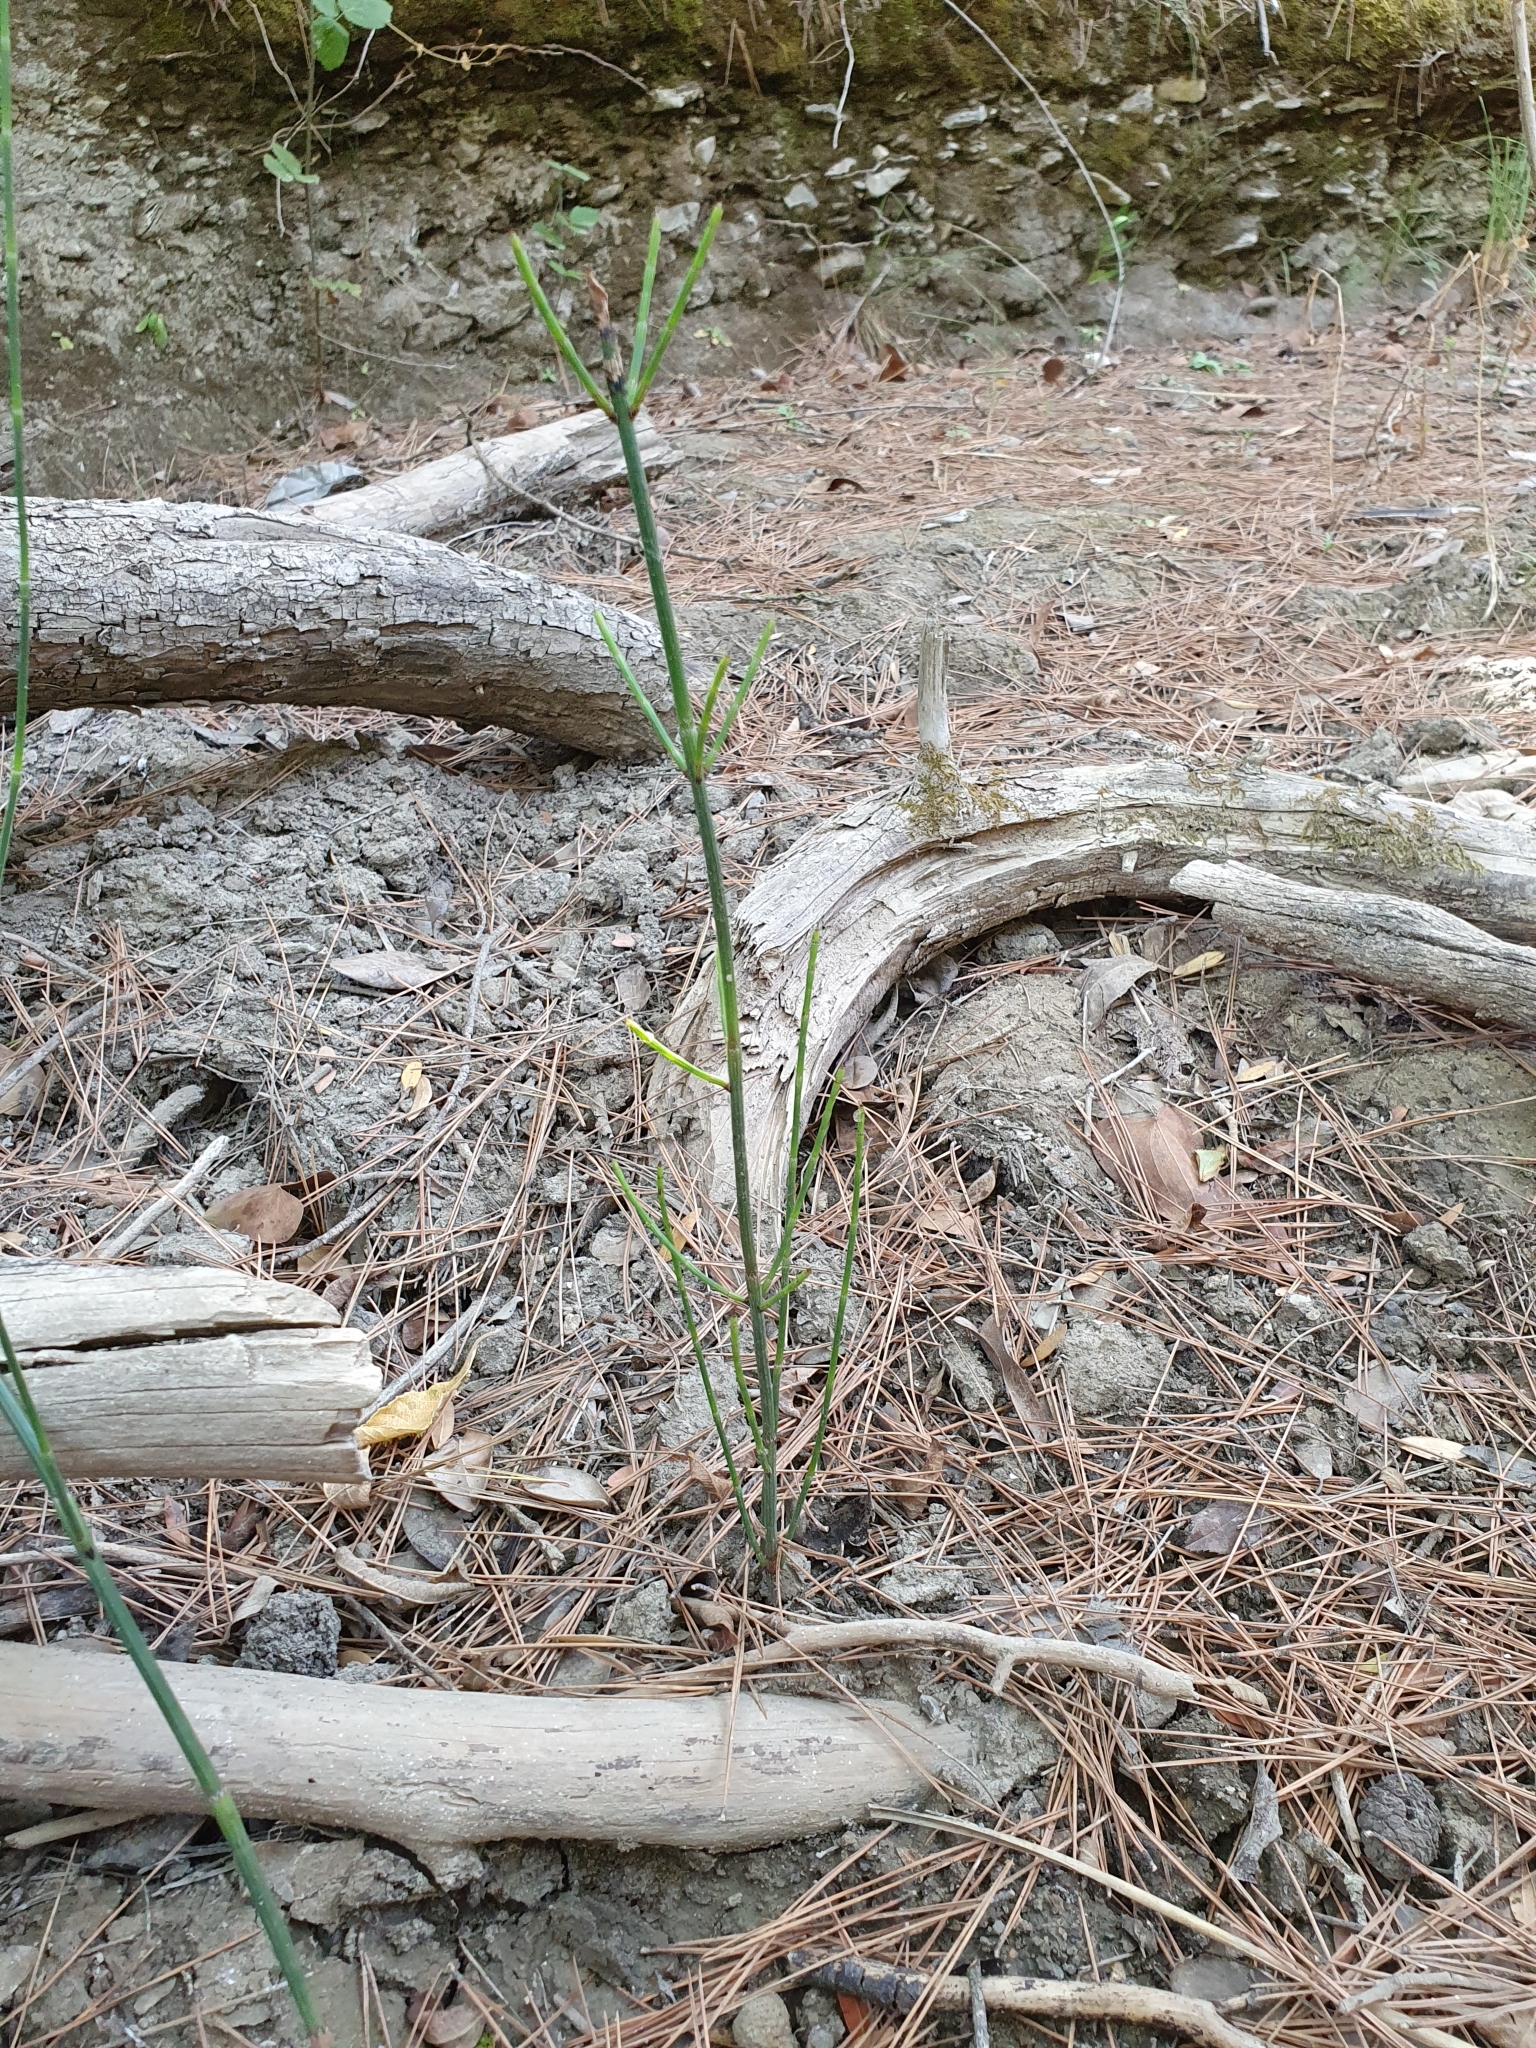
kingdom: Plantae
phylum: Tracheophyta
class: Polypodiopsida
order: Equisetales
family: Equisetaceae
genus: Equisetum
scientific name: Equisetum ramosissimum
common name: Branched horsetail
